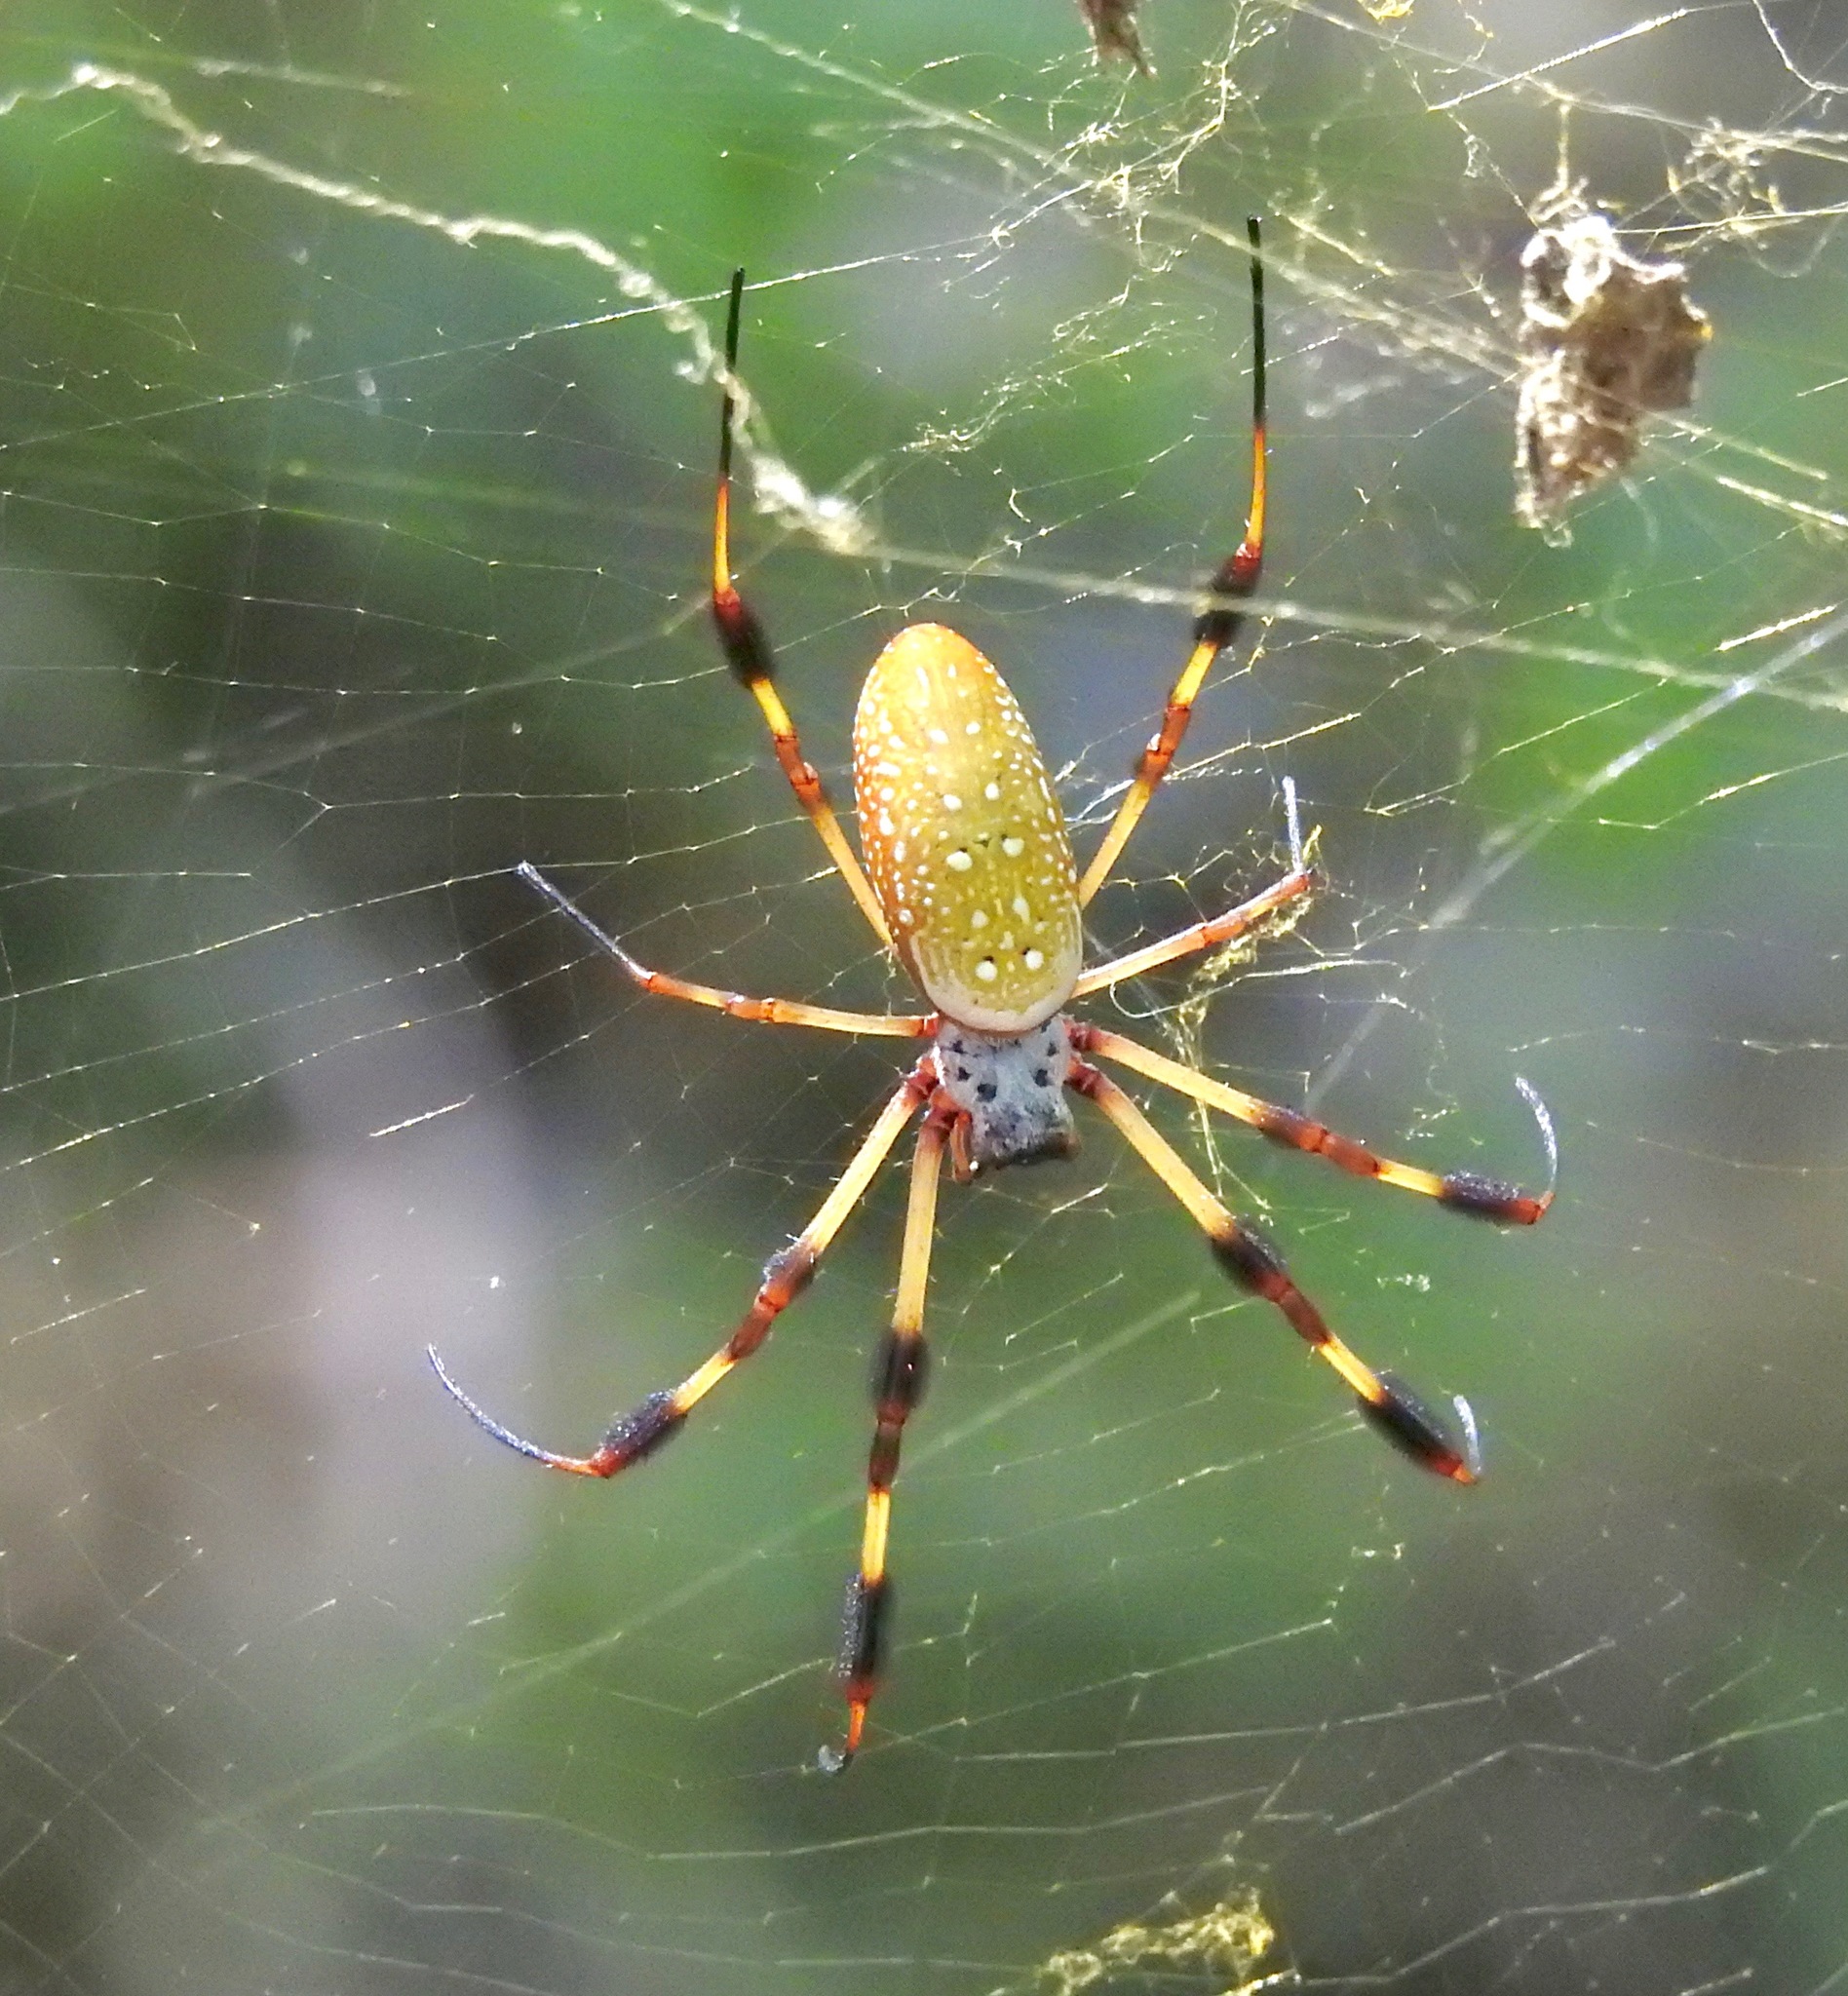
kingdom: Animalia
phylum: Arthropoda
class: Arachnida
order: Araneae
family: Araneidae
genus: Trichonephila
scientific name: Trichonephila clavipes
